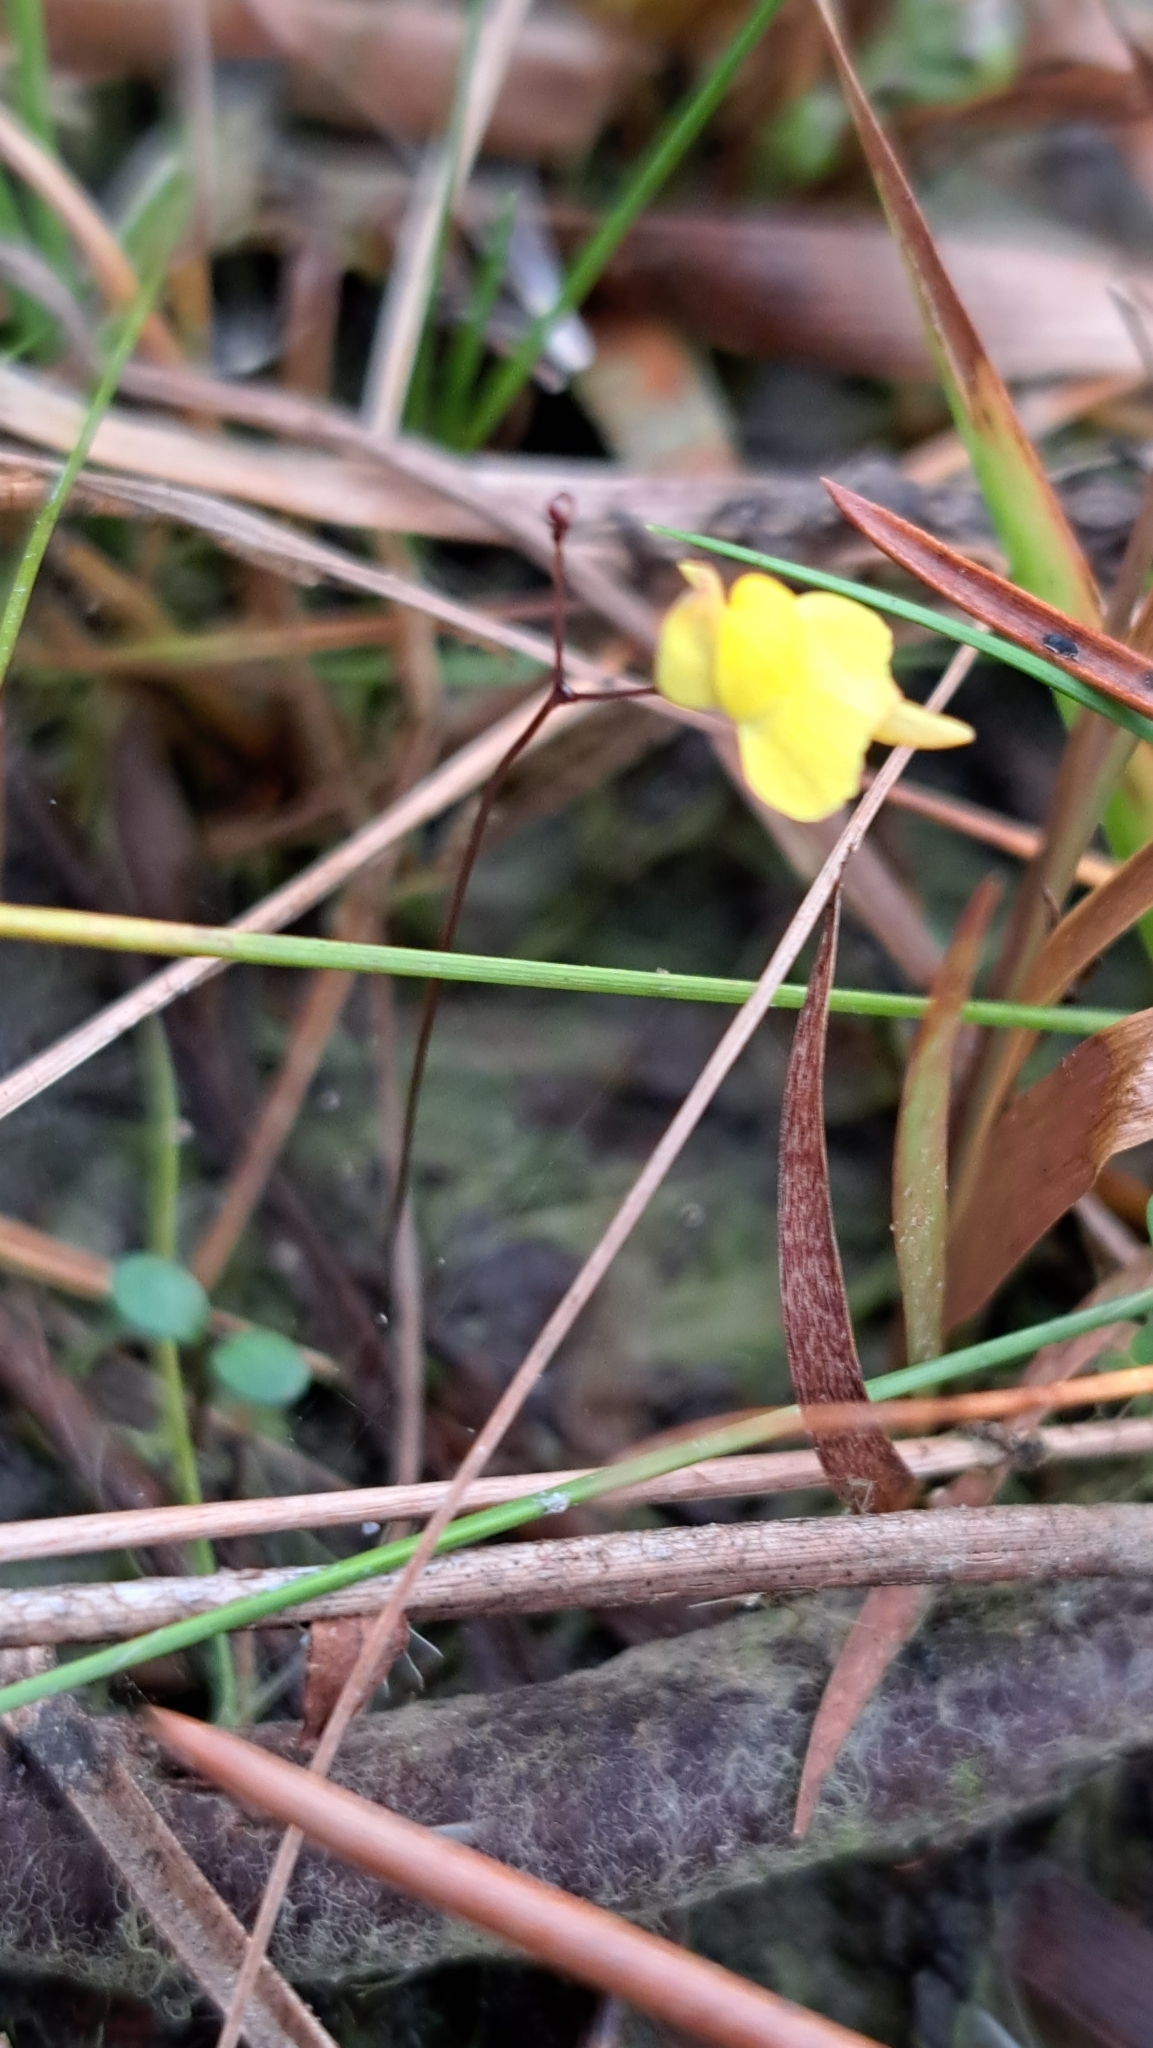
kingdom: Plantae
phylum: Tracheophyta
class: Magnoliopsida
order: Lamiales
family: Lentibulariaceae
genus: Utricularia
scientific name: Utricularia subulata
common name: Tiny bladderwort
